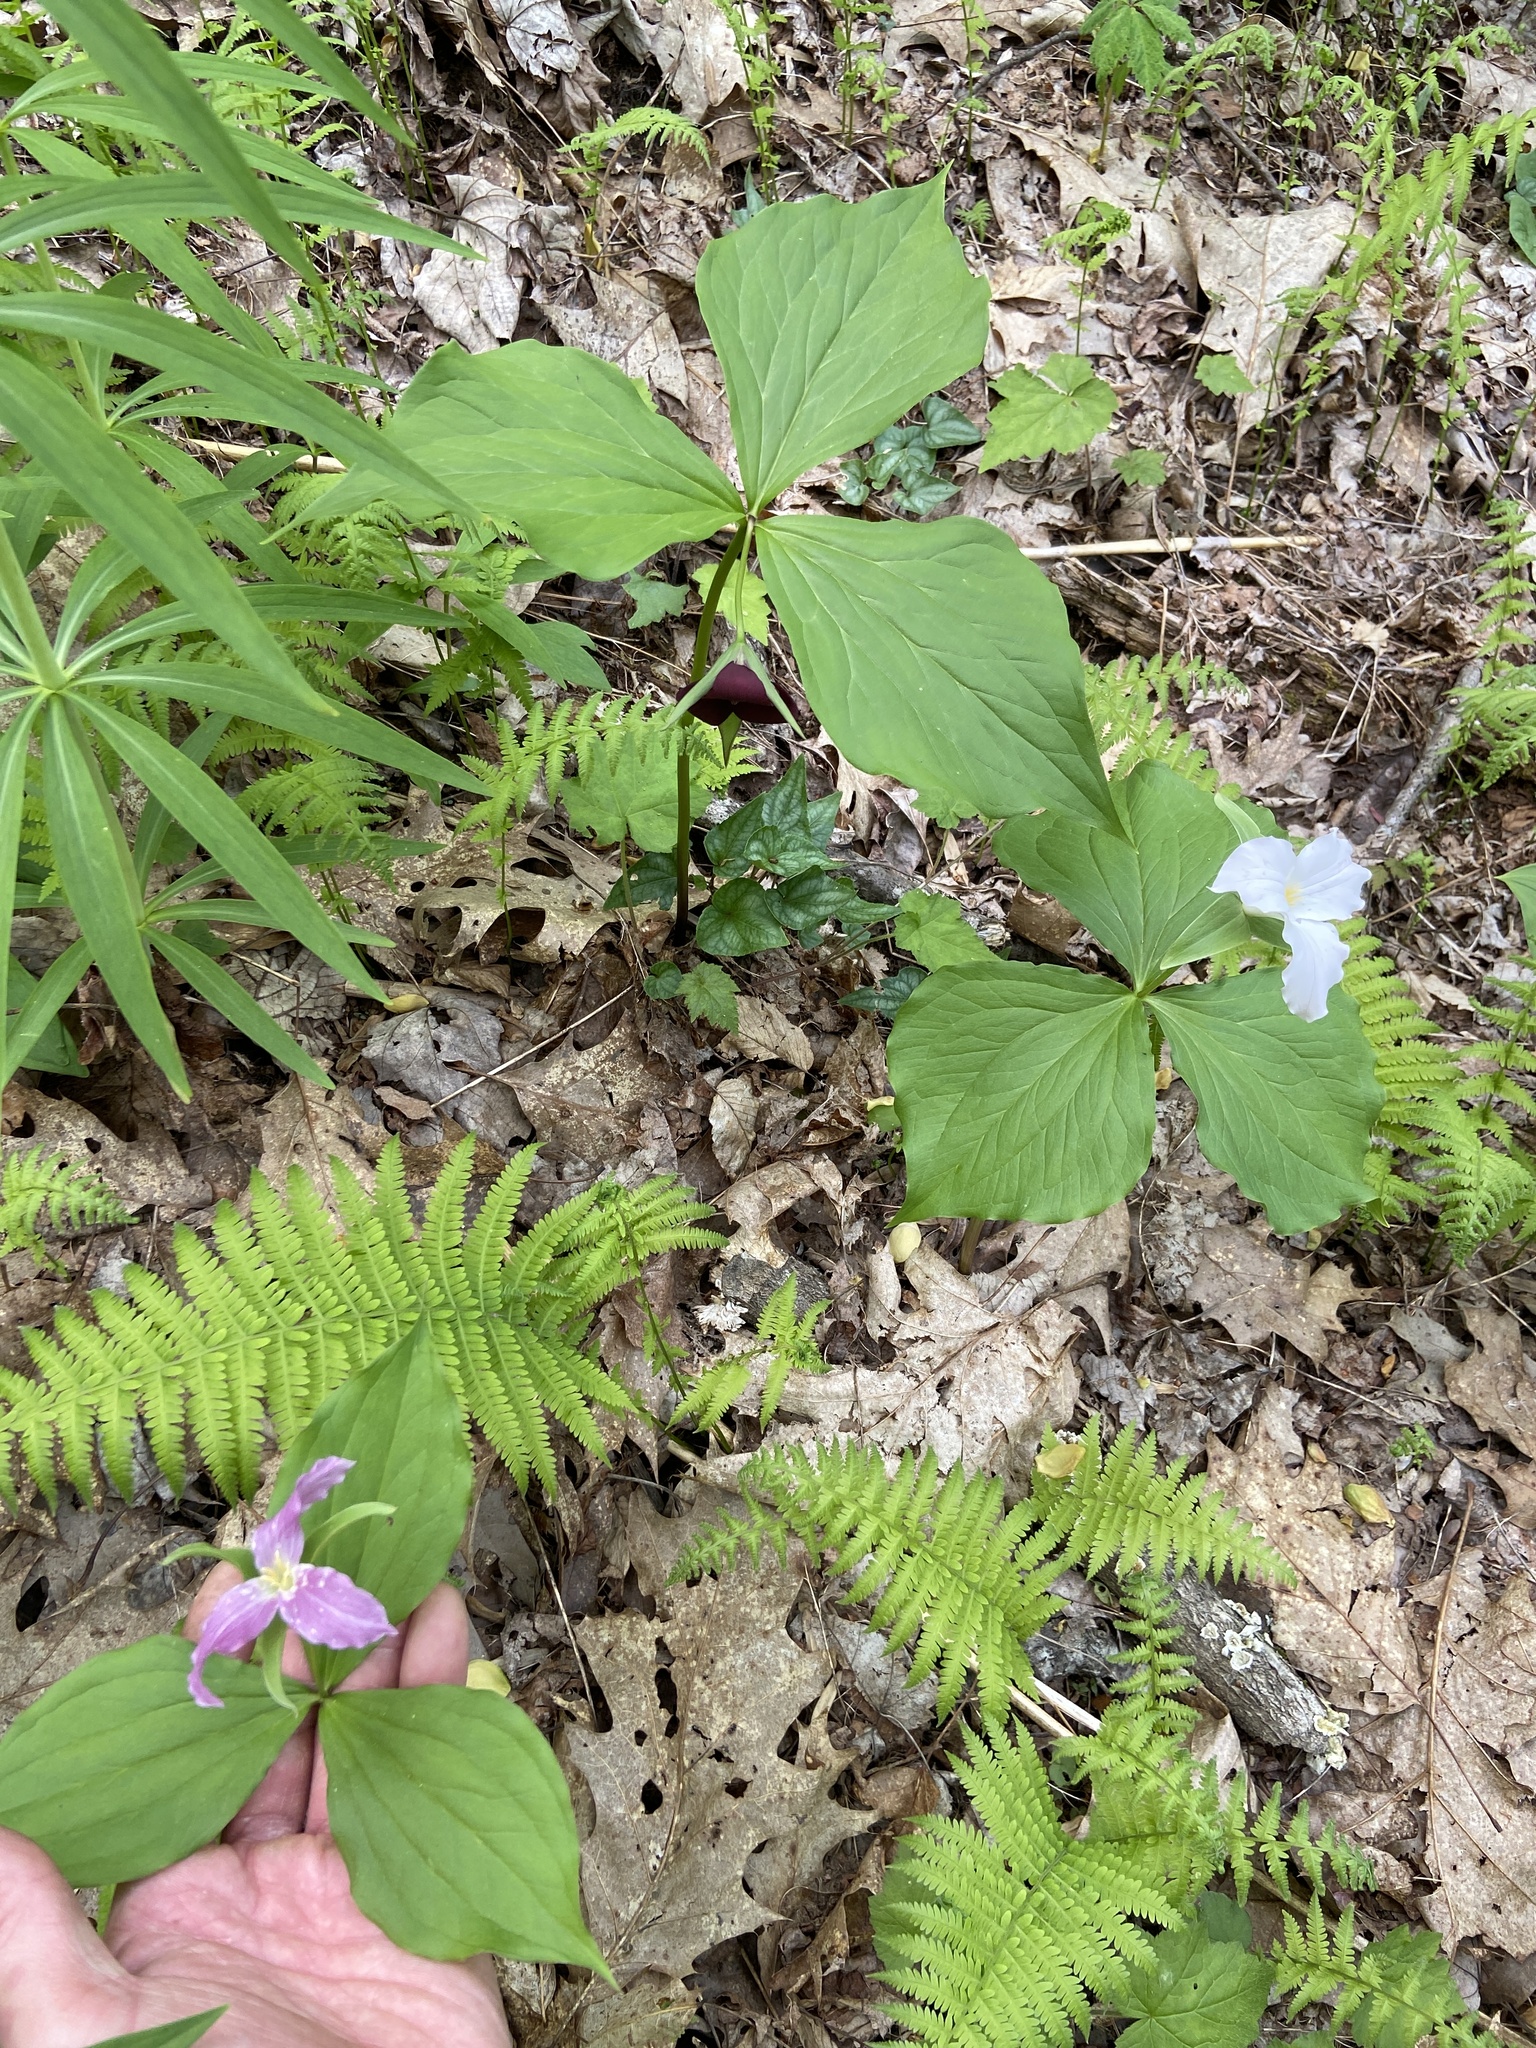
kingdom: Plantae
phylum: Tracheophyta
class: Liliopsida
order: Liliales
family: Melanthiaceae
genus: Trillium
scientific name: Trillium grandiflorum
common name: Great white trillium
